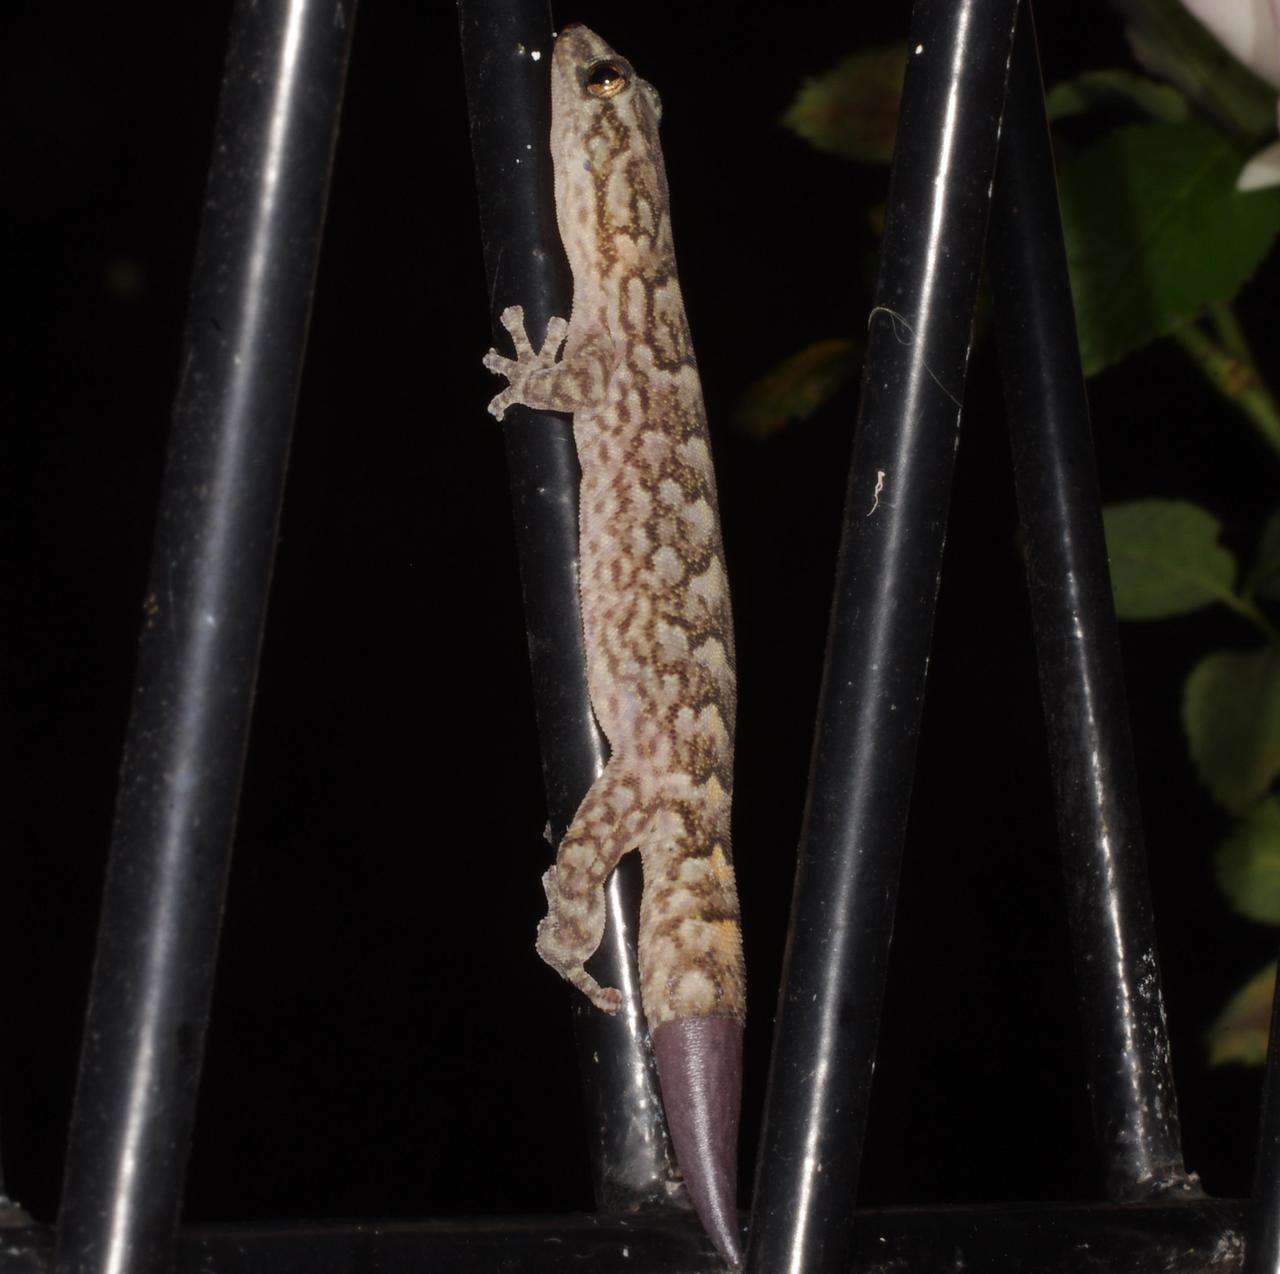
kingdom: Animalia
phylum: Chordata
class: Squamata
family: Gekkonidae
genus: Christinus
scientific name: Christinus marmoratus
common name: Marbled gecko
